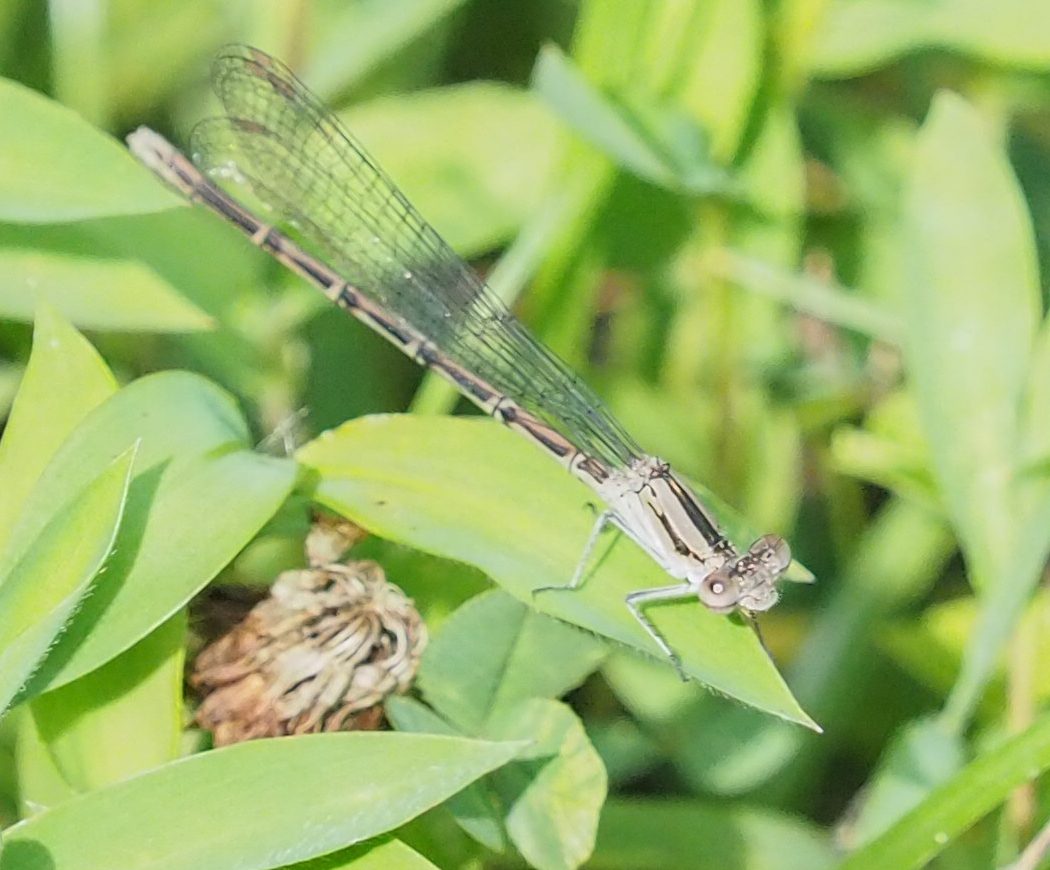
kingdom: Animalia
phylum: Arthropoda
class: Insecta
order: Odonata
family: Coenagrionidae
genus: Argia
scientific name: Argia fumipennis
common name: Variable dancer
